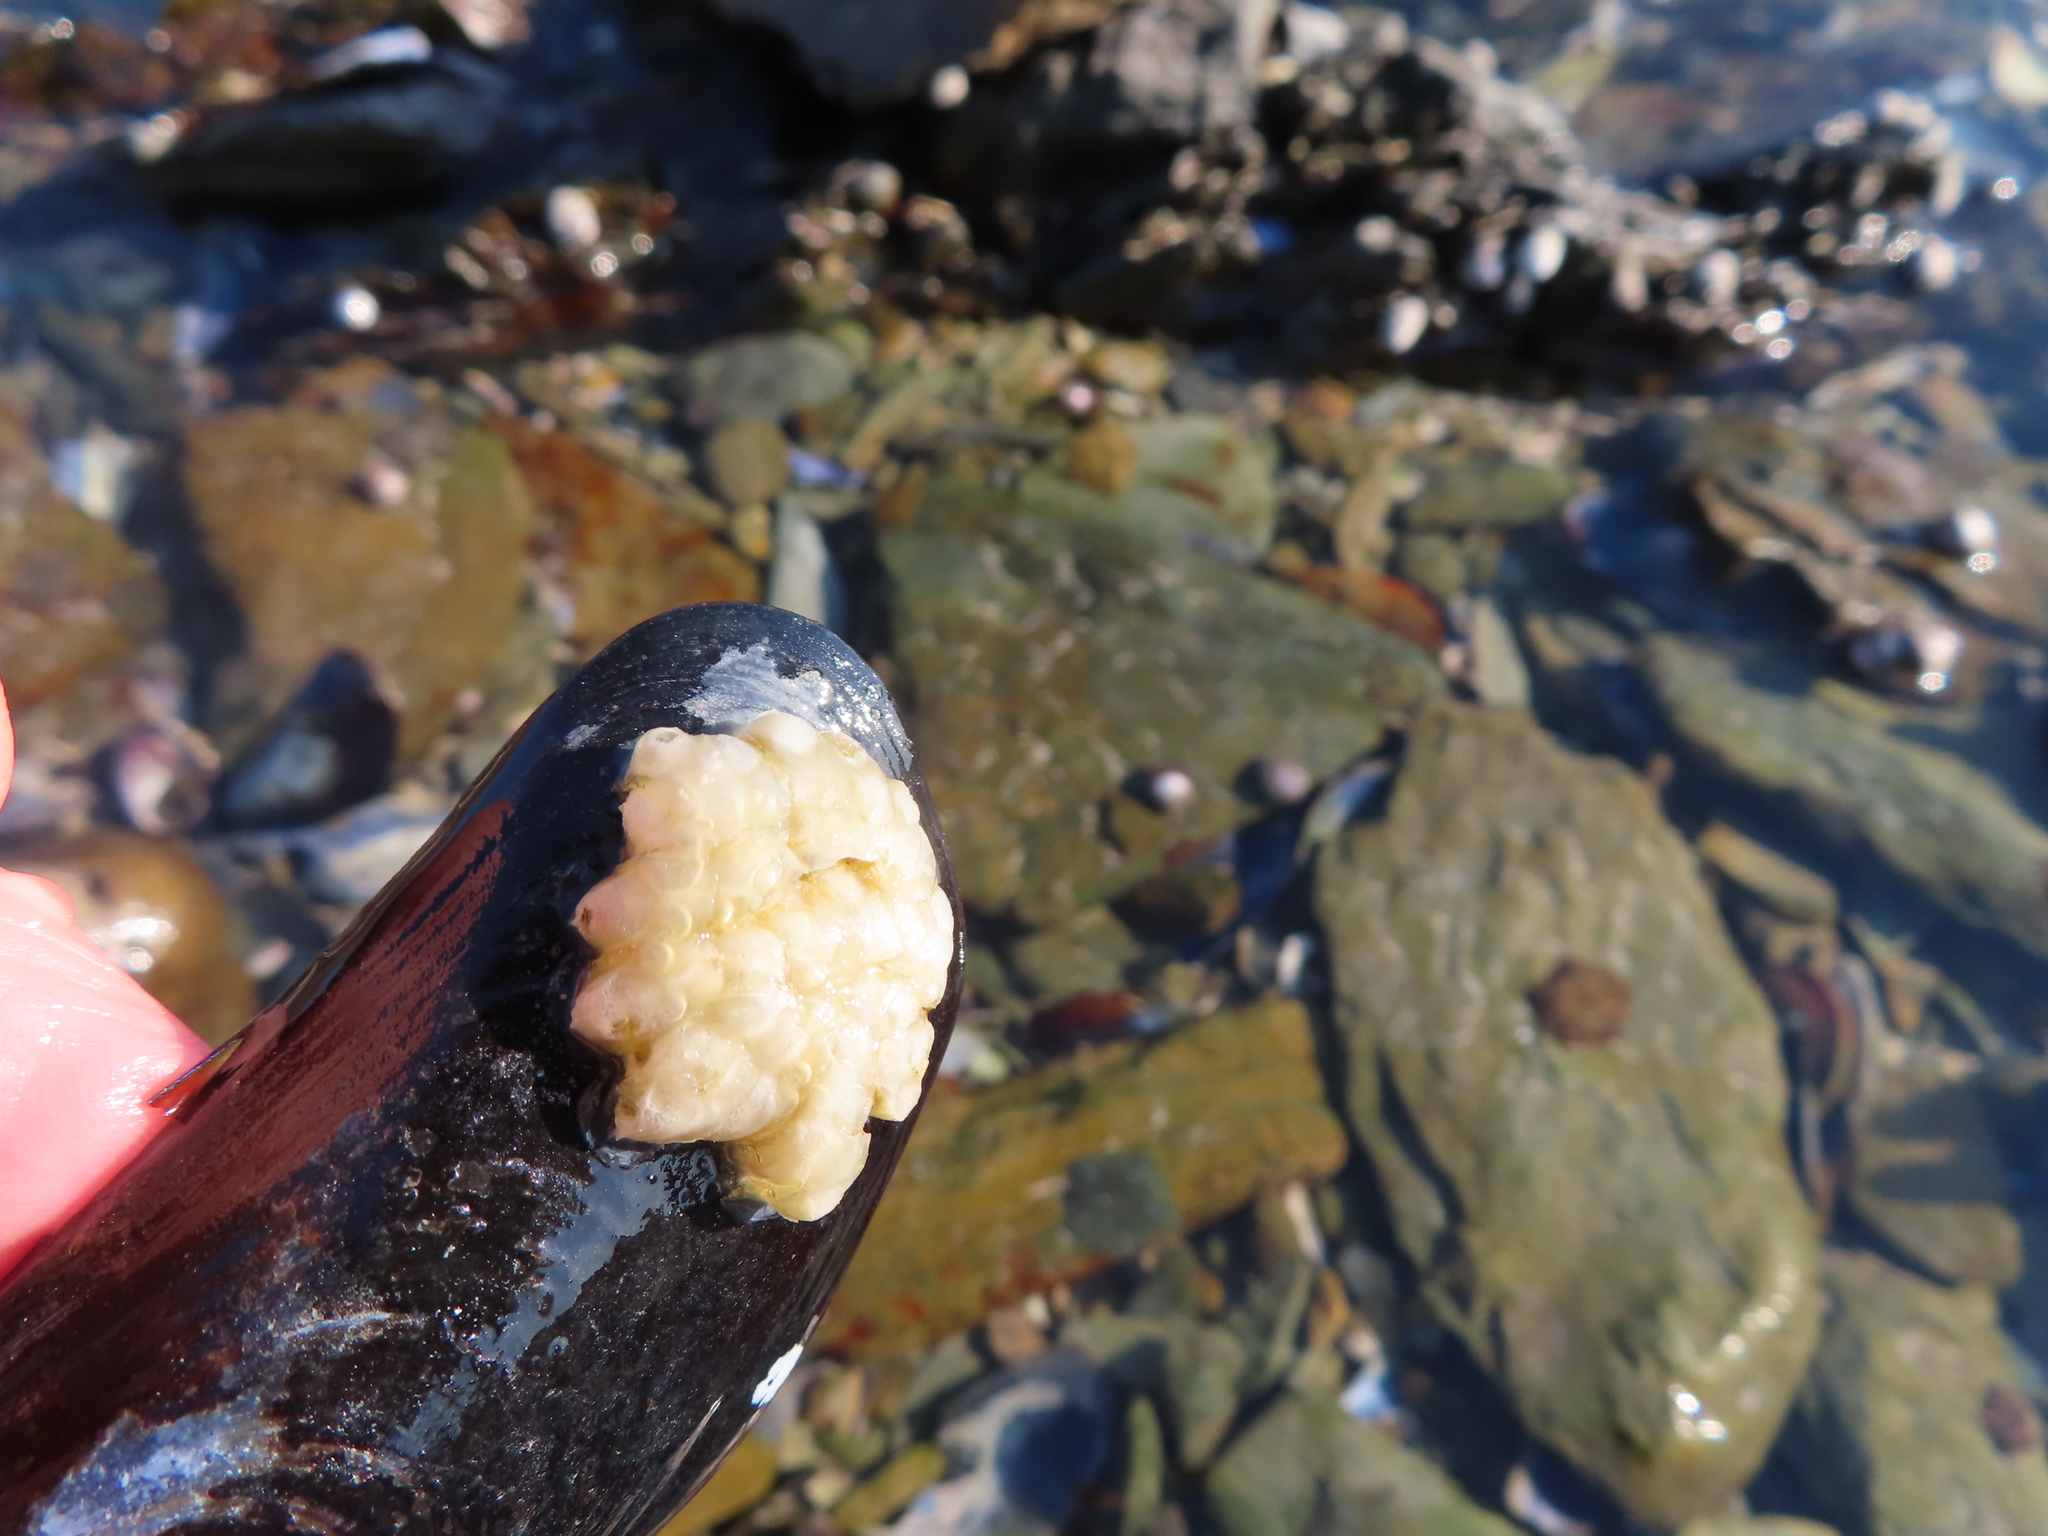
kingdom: Animalia
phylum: Mollusca
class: Gastropoda
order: Neogastropoda
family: Buccinidae
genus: Burnupena
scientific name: Burnupena lagenaria
